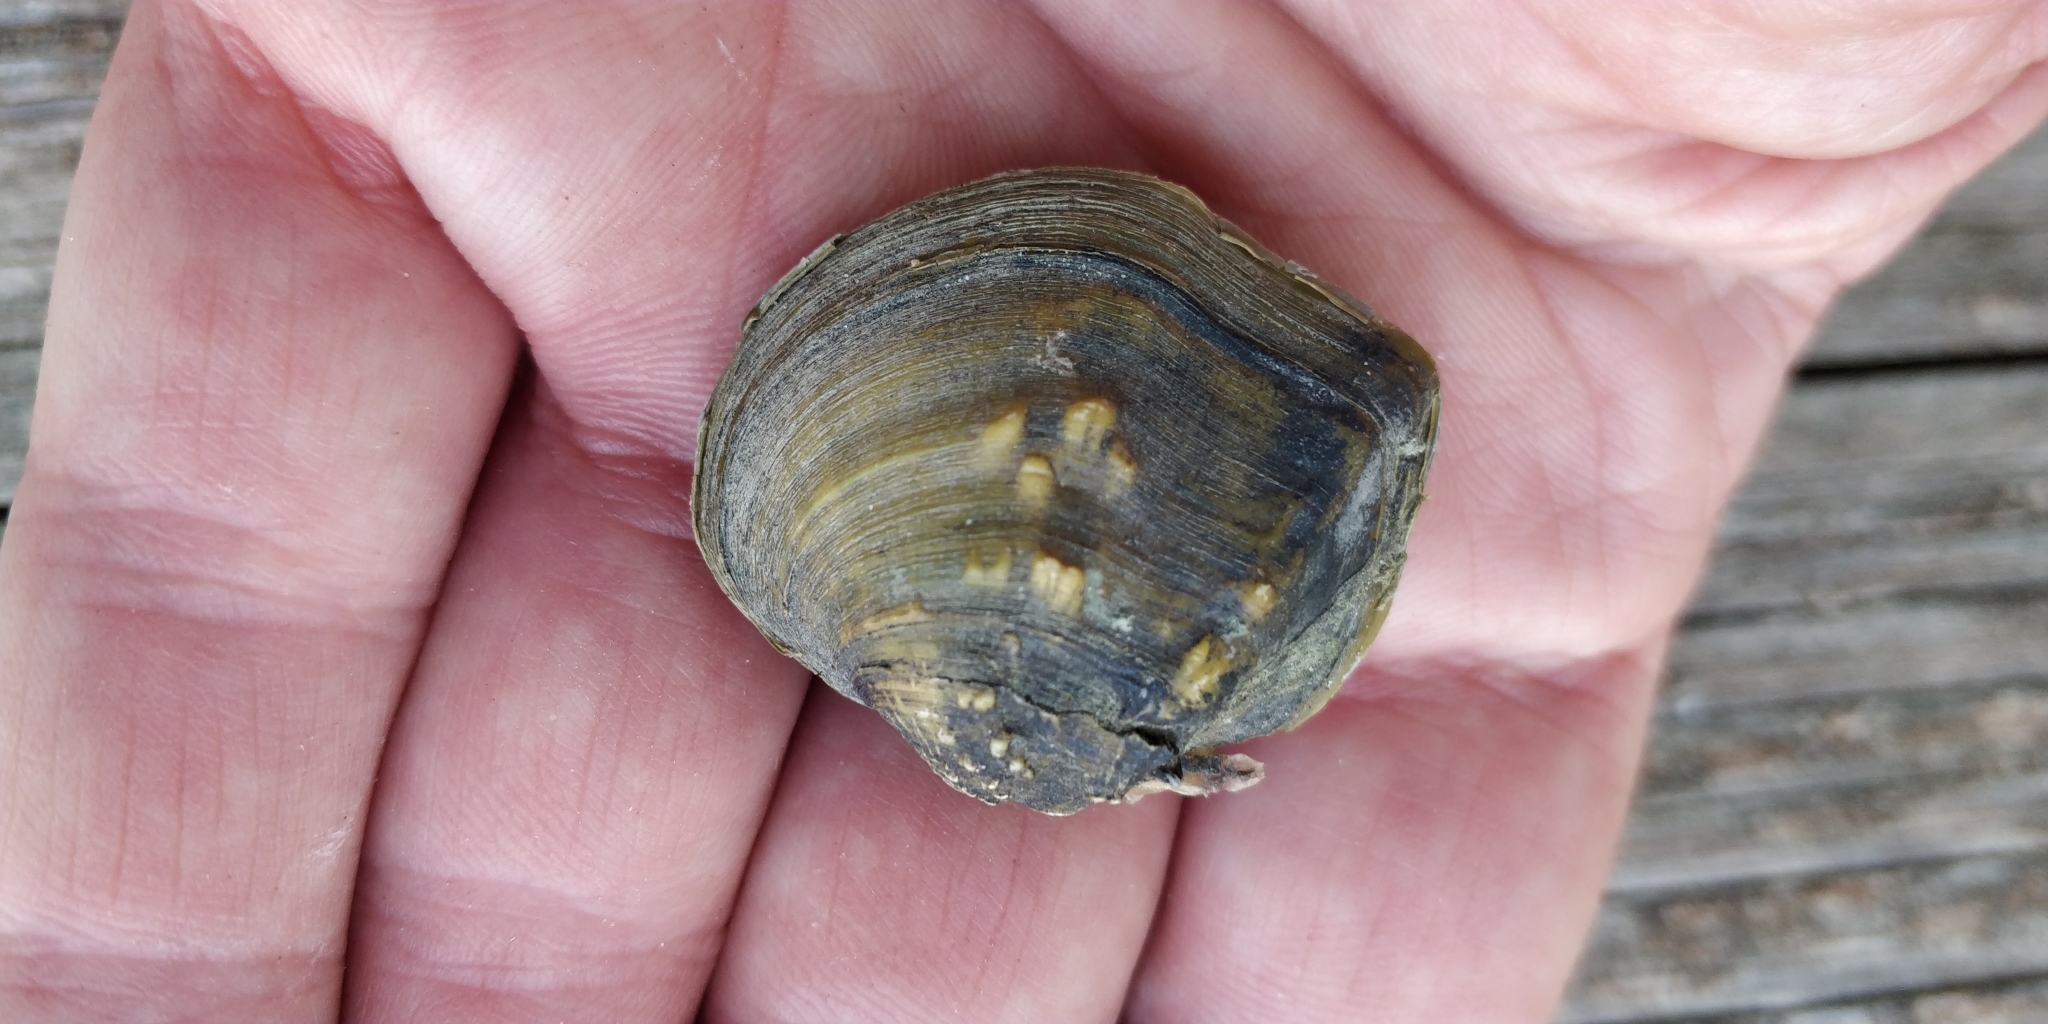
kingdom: Animalia
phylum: Mollusca
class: Bivalvia
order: Unionida
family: Unionidae
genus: Quadrula
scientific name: Quadrula quadrula
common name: Mapleleaf
